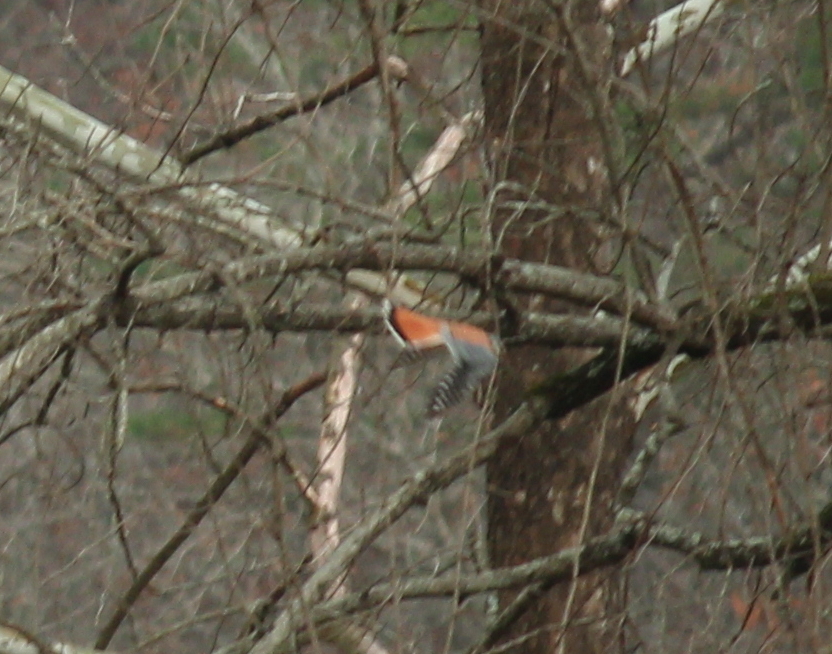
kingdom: Animalia
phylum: Chordata
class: Aves
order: Falconiformes
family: Falconidae
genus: Falco
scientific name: Falco sparverius
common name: American kestrel
